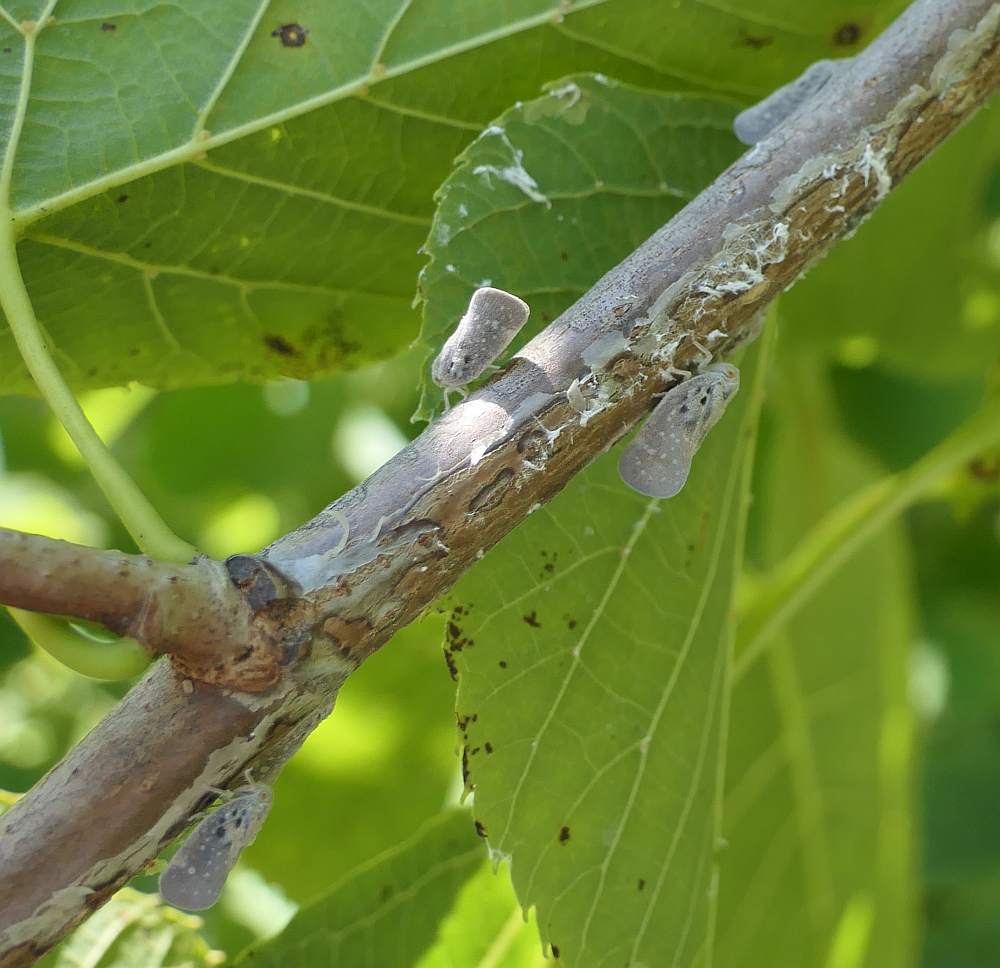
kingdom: Animalia
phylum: Arthropoda
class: Insecta
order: Hemiptera
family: Flatidae
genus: Metcalfa
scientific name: Metcalfa pruinosa
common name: Citrus flatid planthopper
